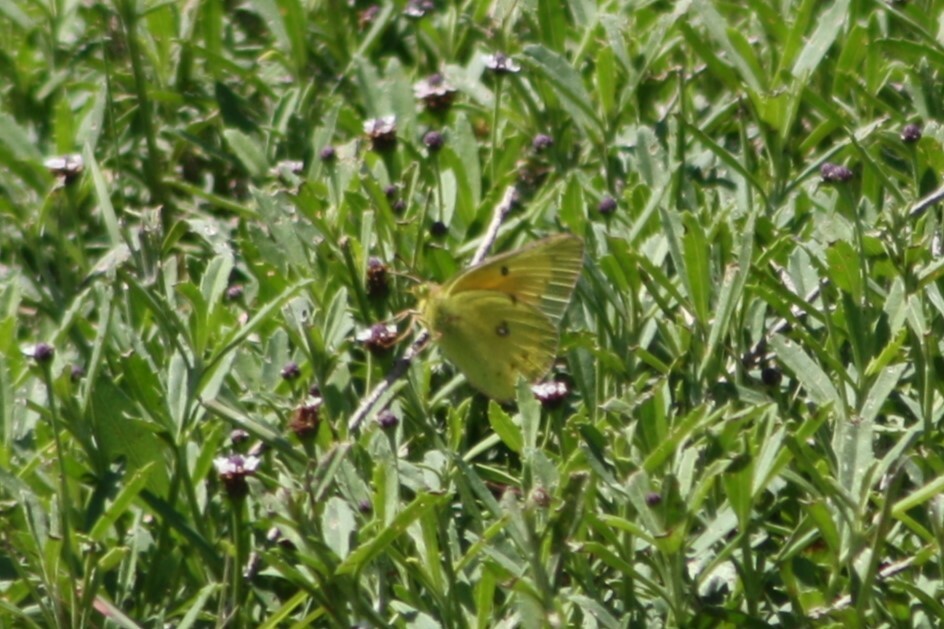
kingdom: Animalia
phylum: Arthropoda
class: Insecta
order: Lepidoptera
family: Pieridae
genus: Colias
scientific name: Colias eurytheme
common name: Alfalfa butterfly
